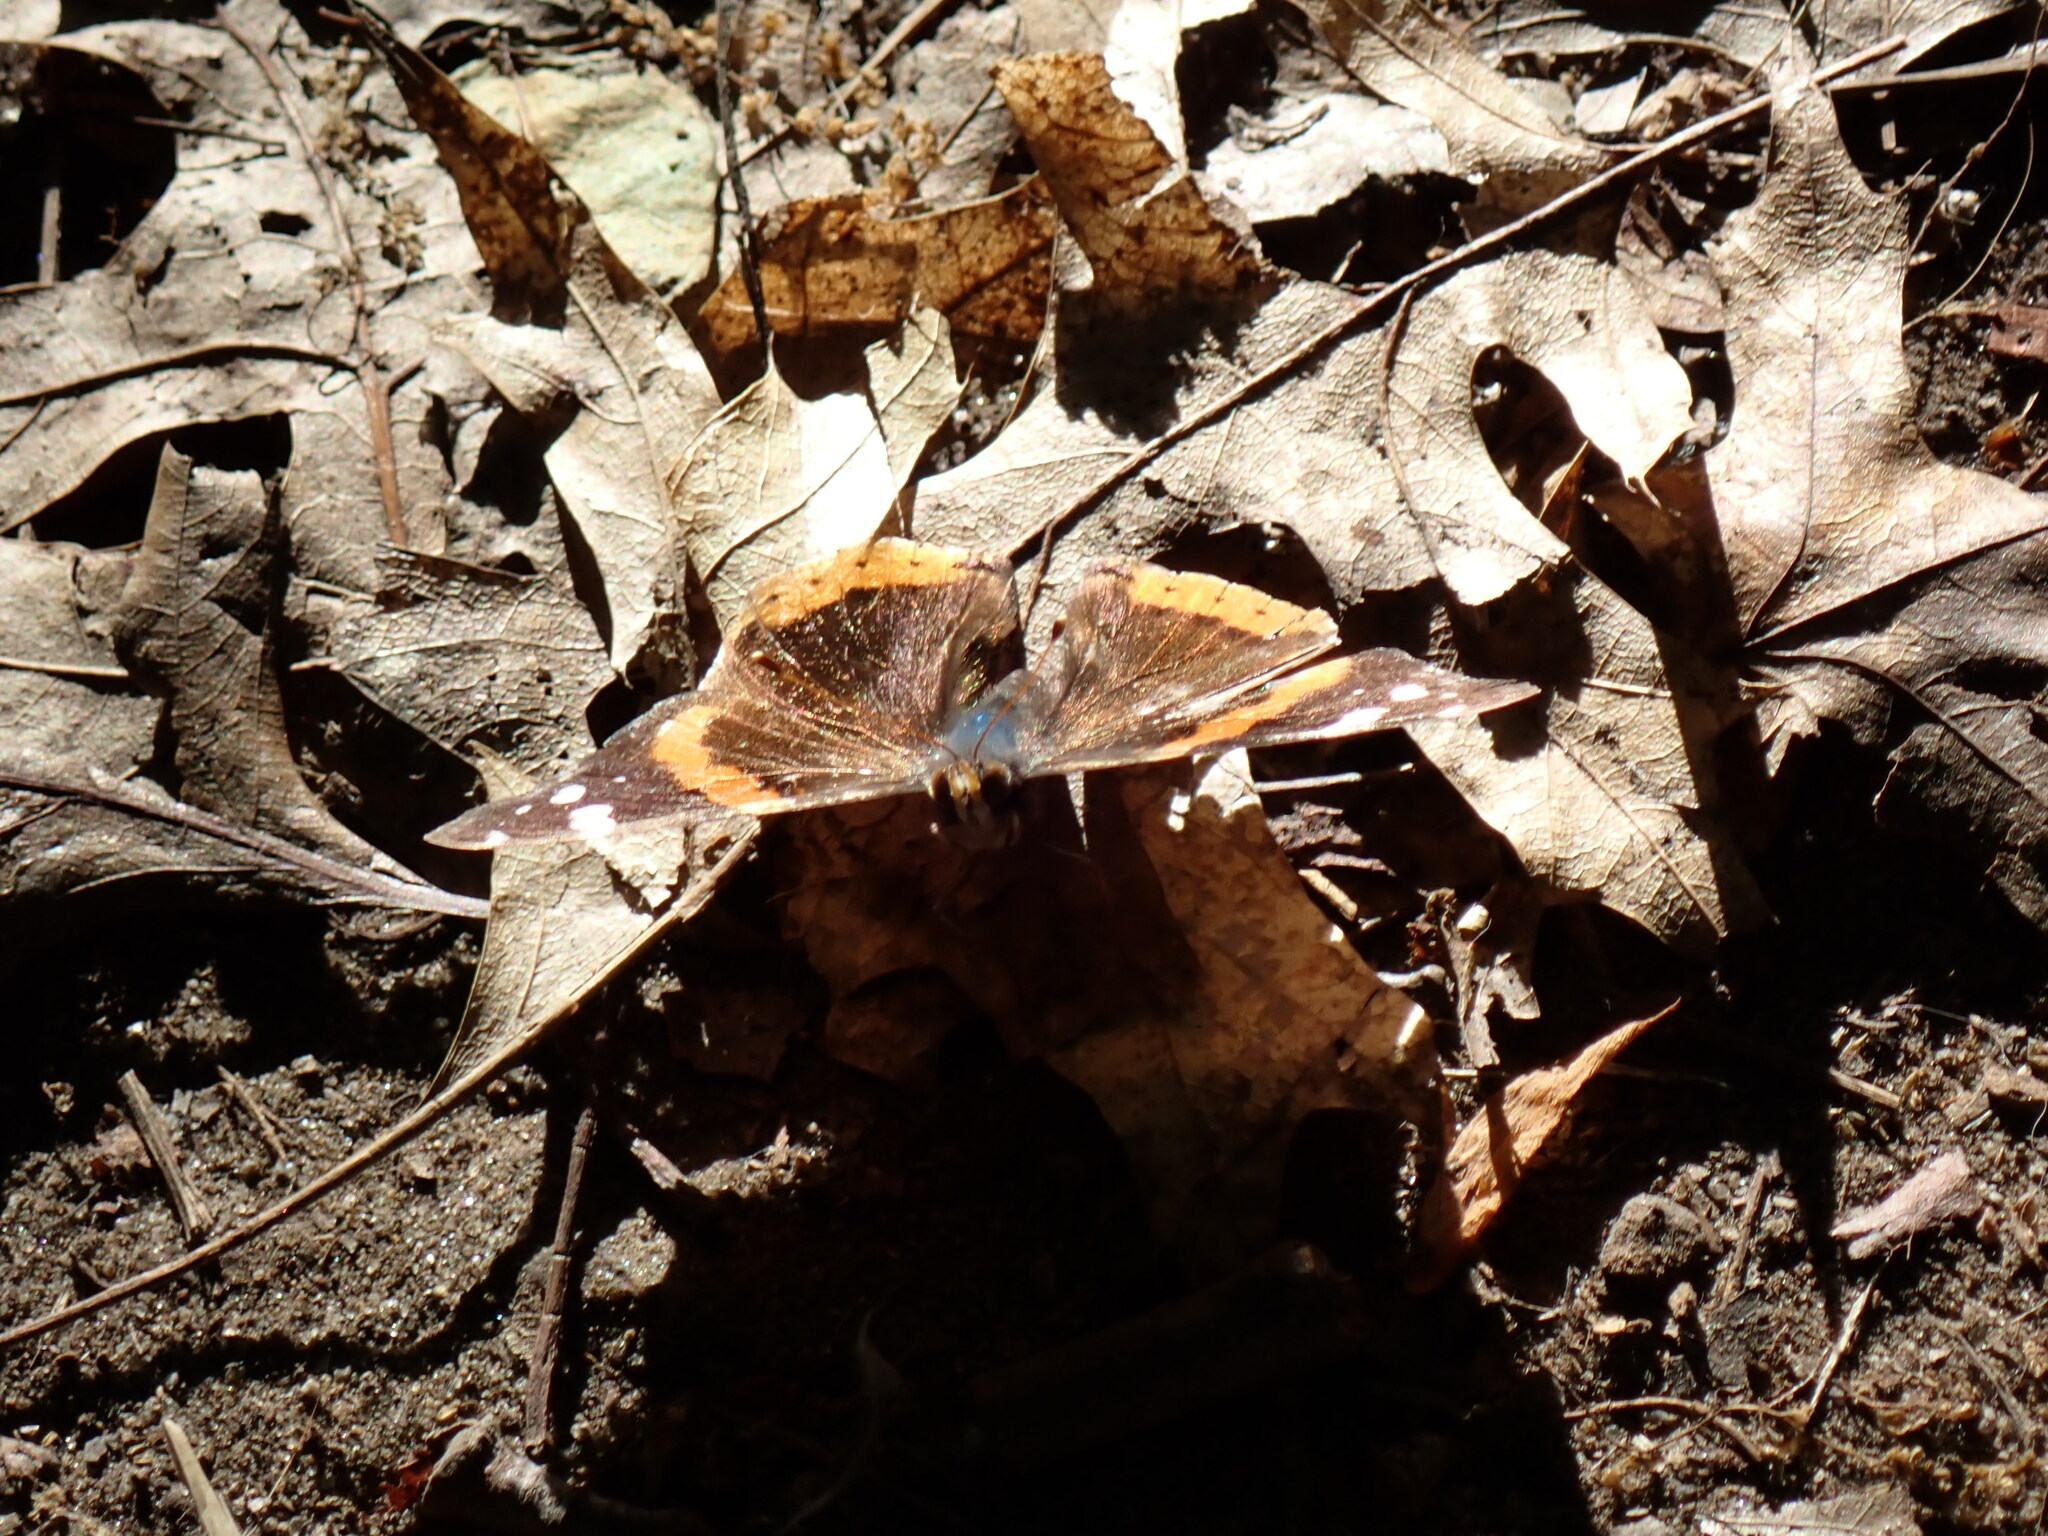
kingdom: Animalia
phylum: Arthropoda
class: Insecta
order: Lepidoptera
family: Nymphalidae
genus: Vanessa
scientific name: Vanessa atalanta
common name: Red admiral
